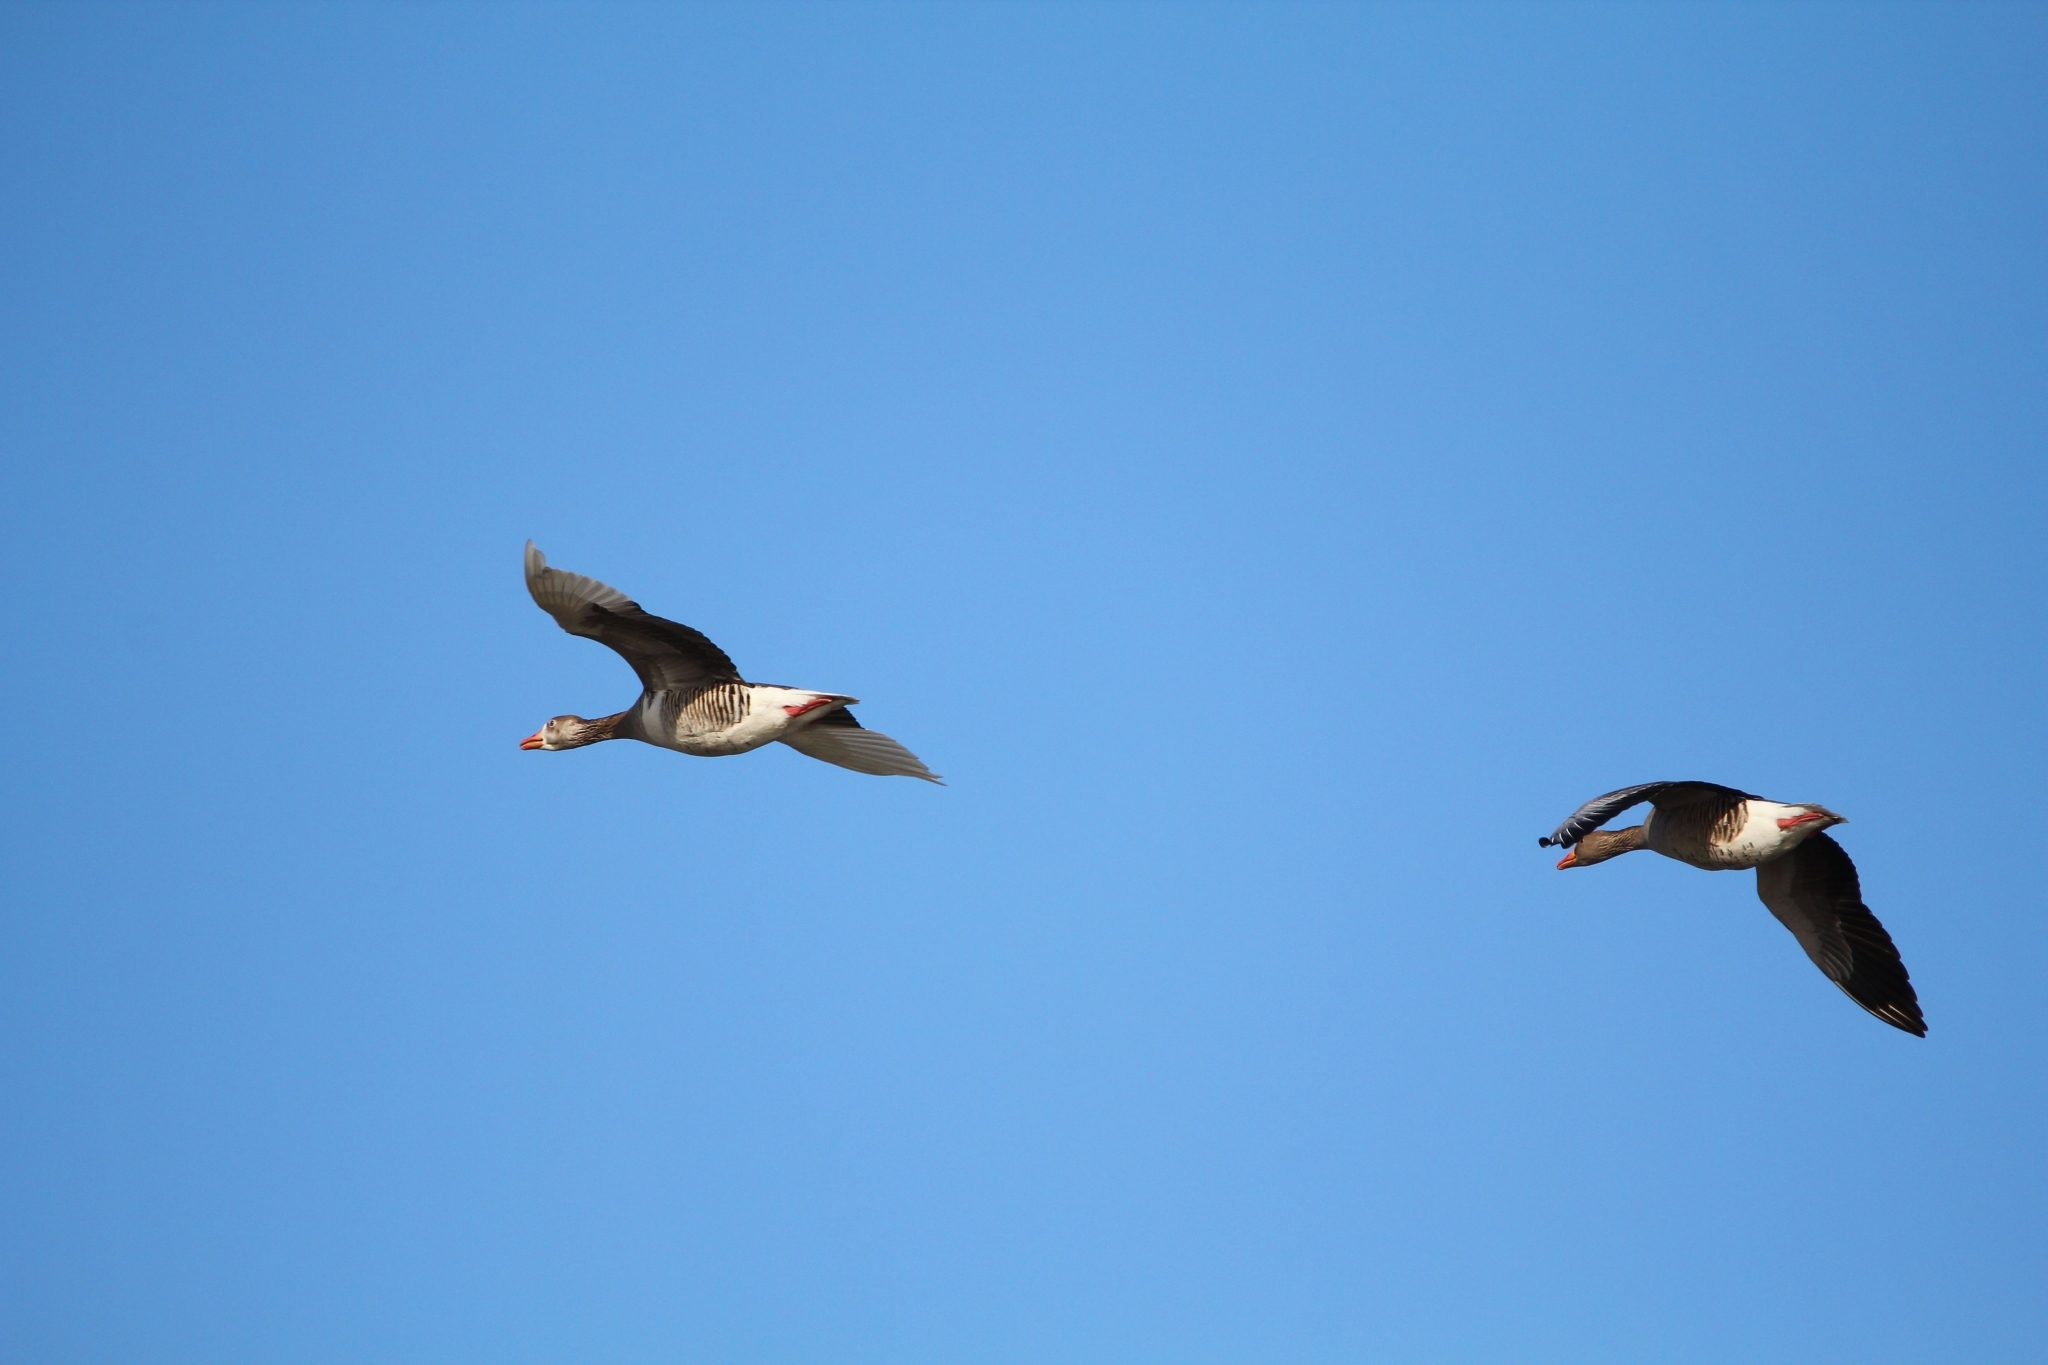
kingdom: Animalia
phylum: Chordata
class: Aves
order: Anseriformes
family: Anatidae
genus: Anser
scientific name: Anser anser
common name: Greylag goose
